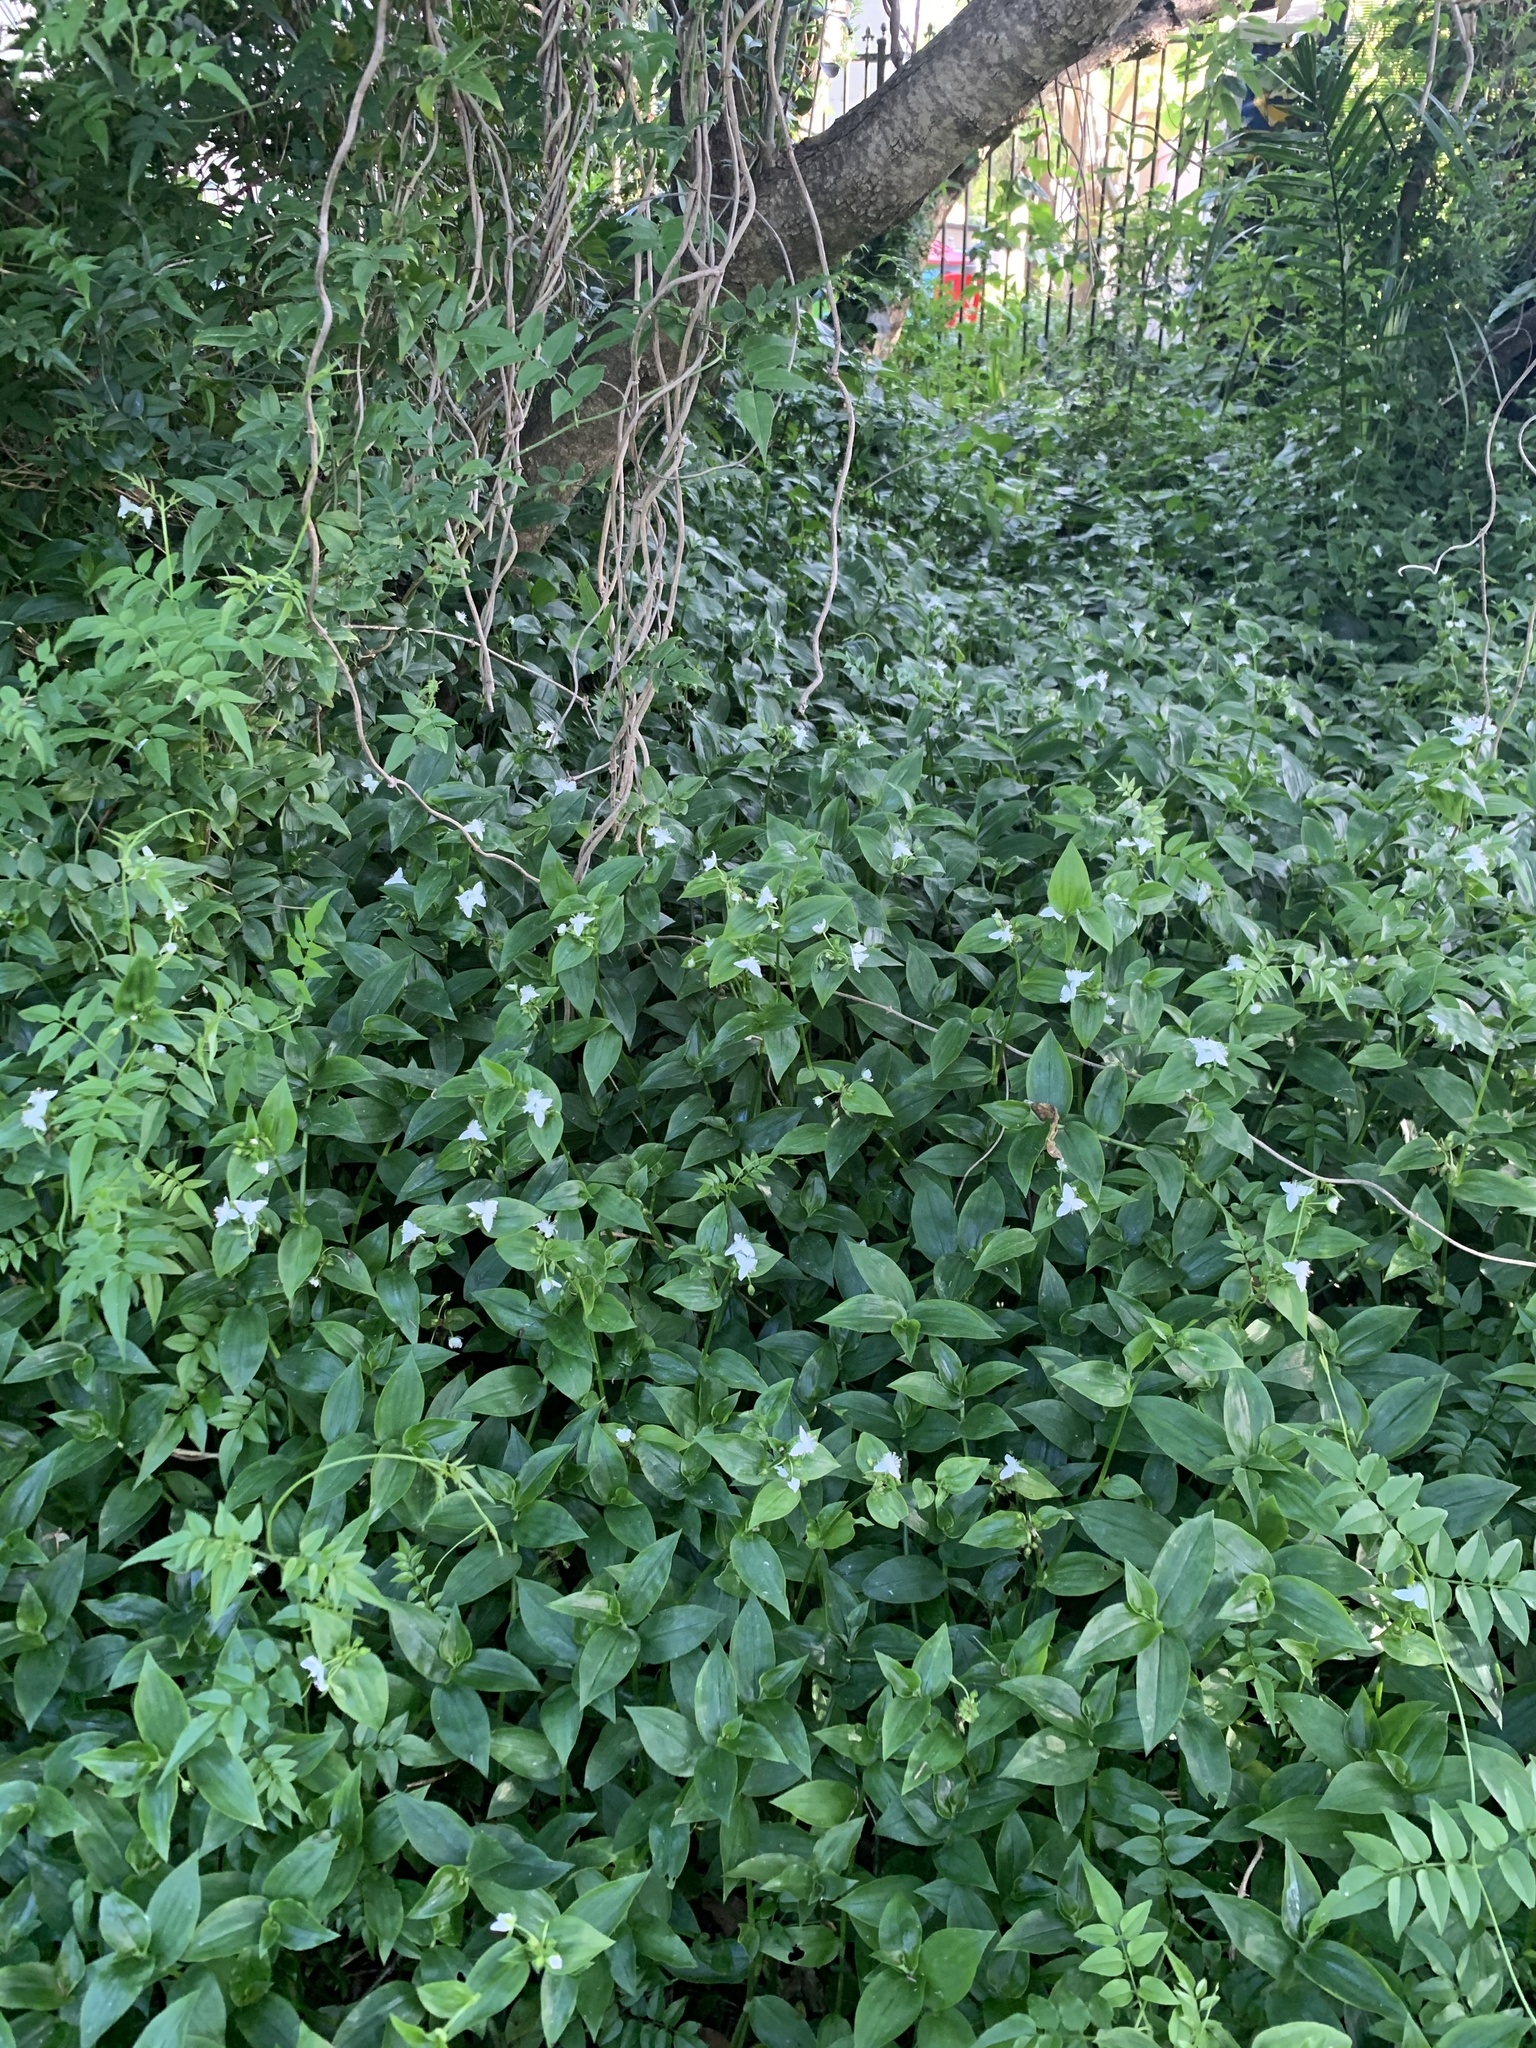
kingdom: Plantae
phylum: Tracheophyta
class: Liliopsida
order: Commelinales
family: Commelinaceae
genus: Tradescantia
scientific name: Tradescantia fluminensis
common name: Wandering-jew
